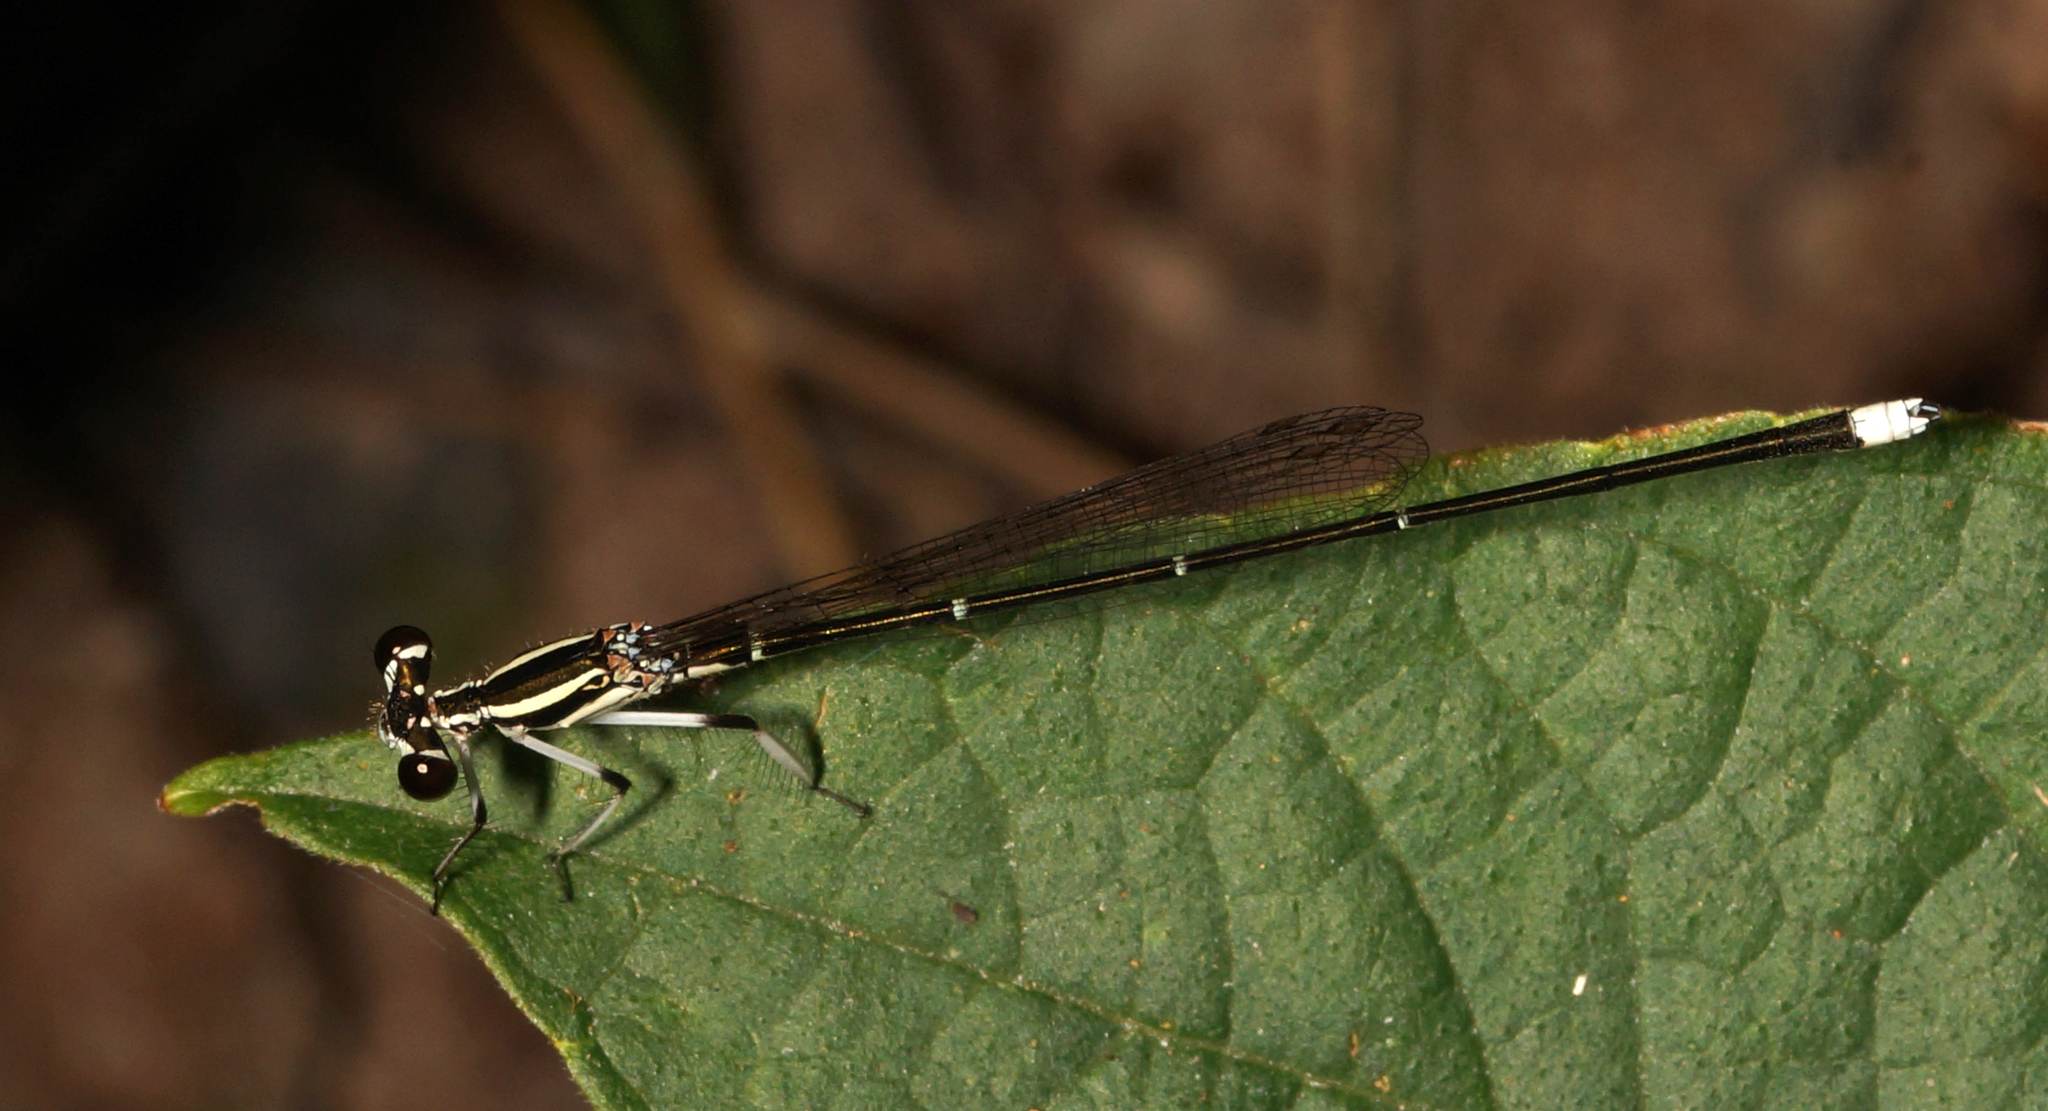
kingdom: Animalia
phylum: Arthropoda
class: Insecta
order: Odonata
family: Platycnemididae
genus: Pseudocopera
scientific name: Pseudocopera ciliata
